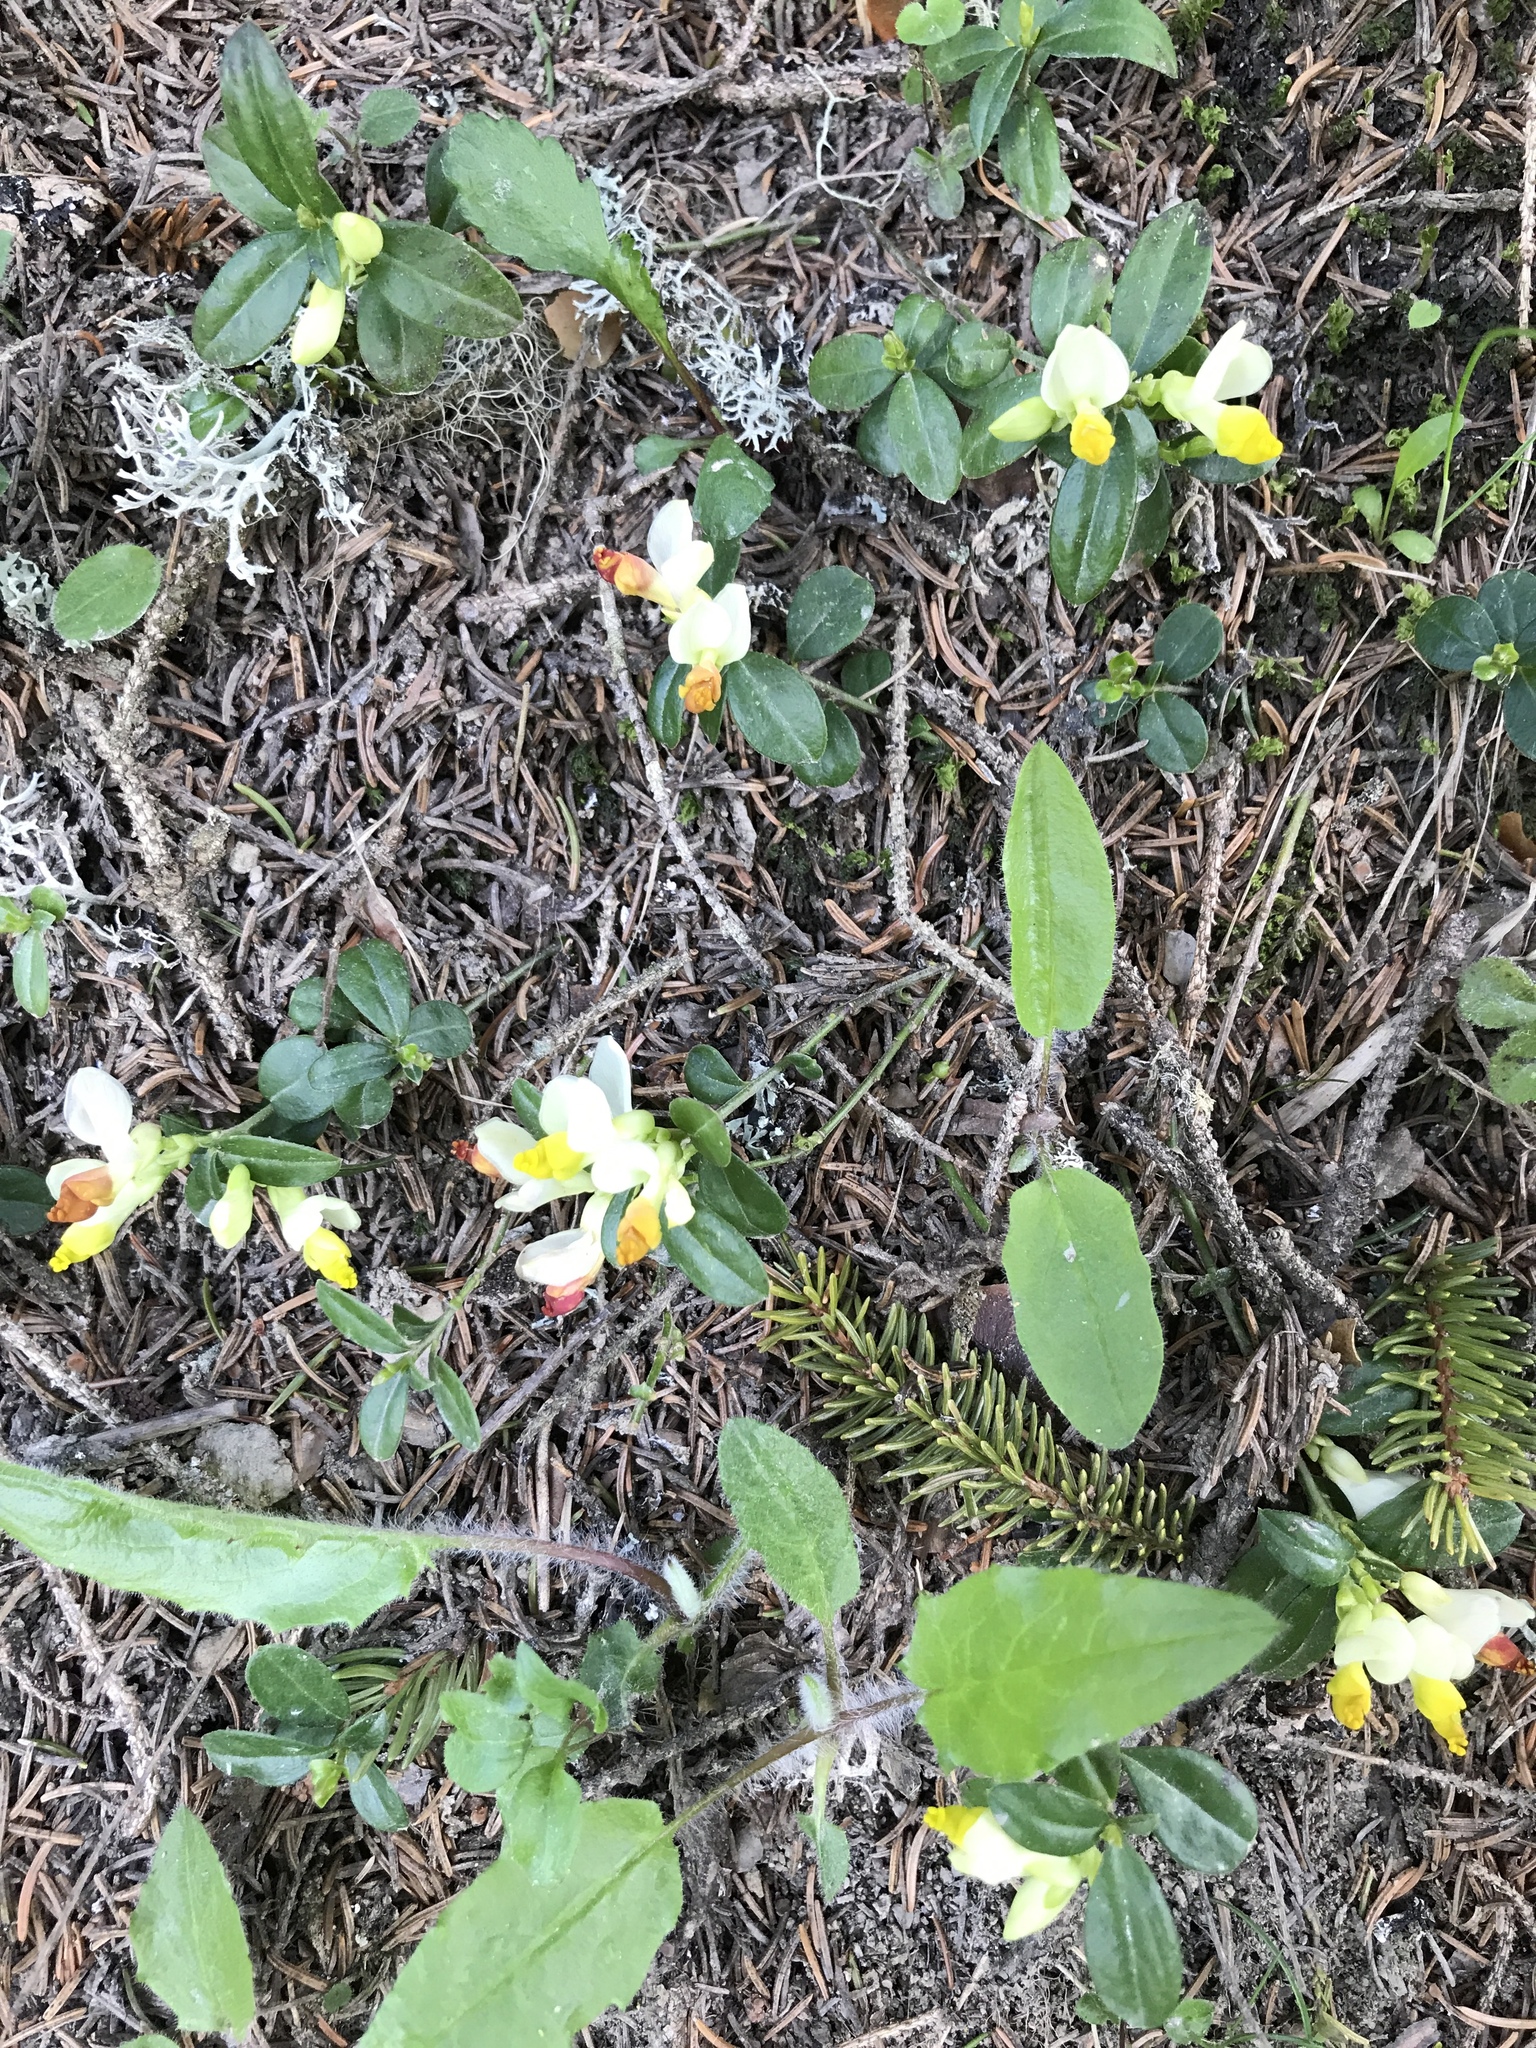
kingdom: Plantae
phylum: Tracheophyta
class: Magnoliopsida
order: Fabales
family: Polygalaceae
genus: Polygaloides
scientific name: Polygaloides chamaebuxus
